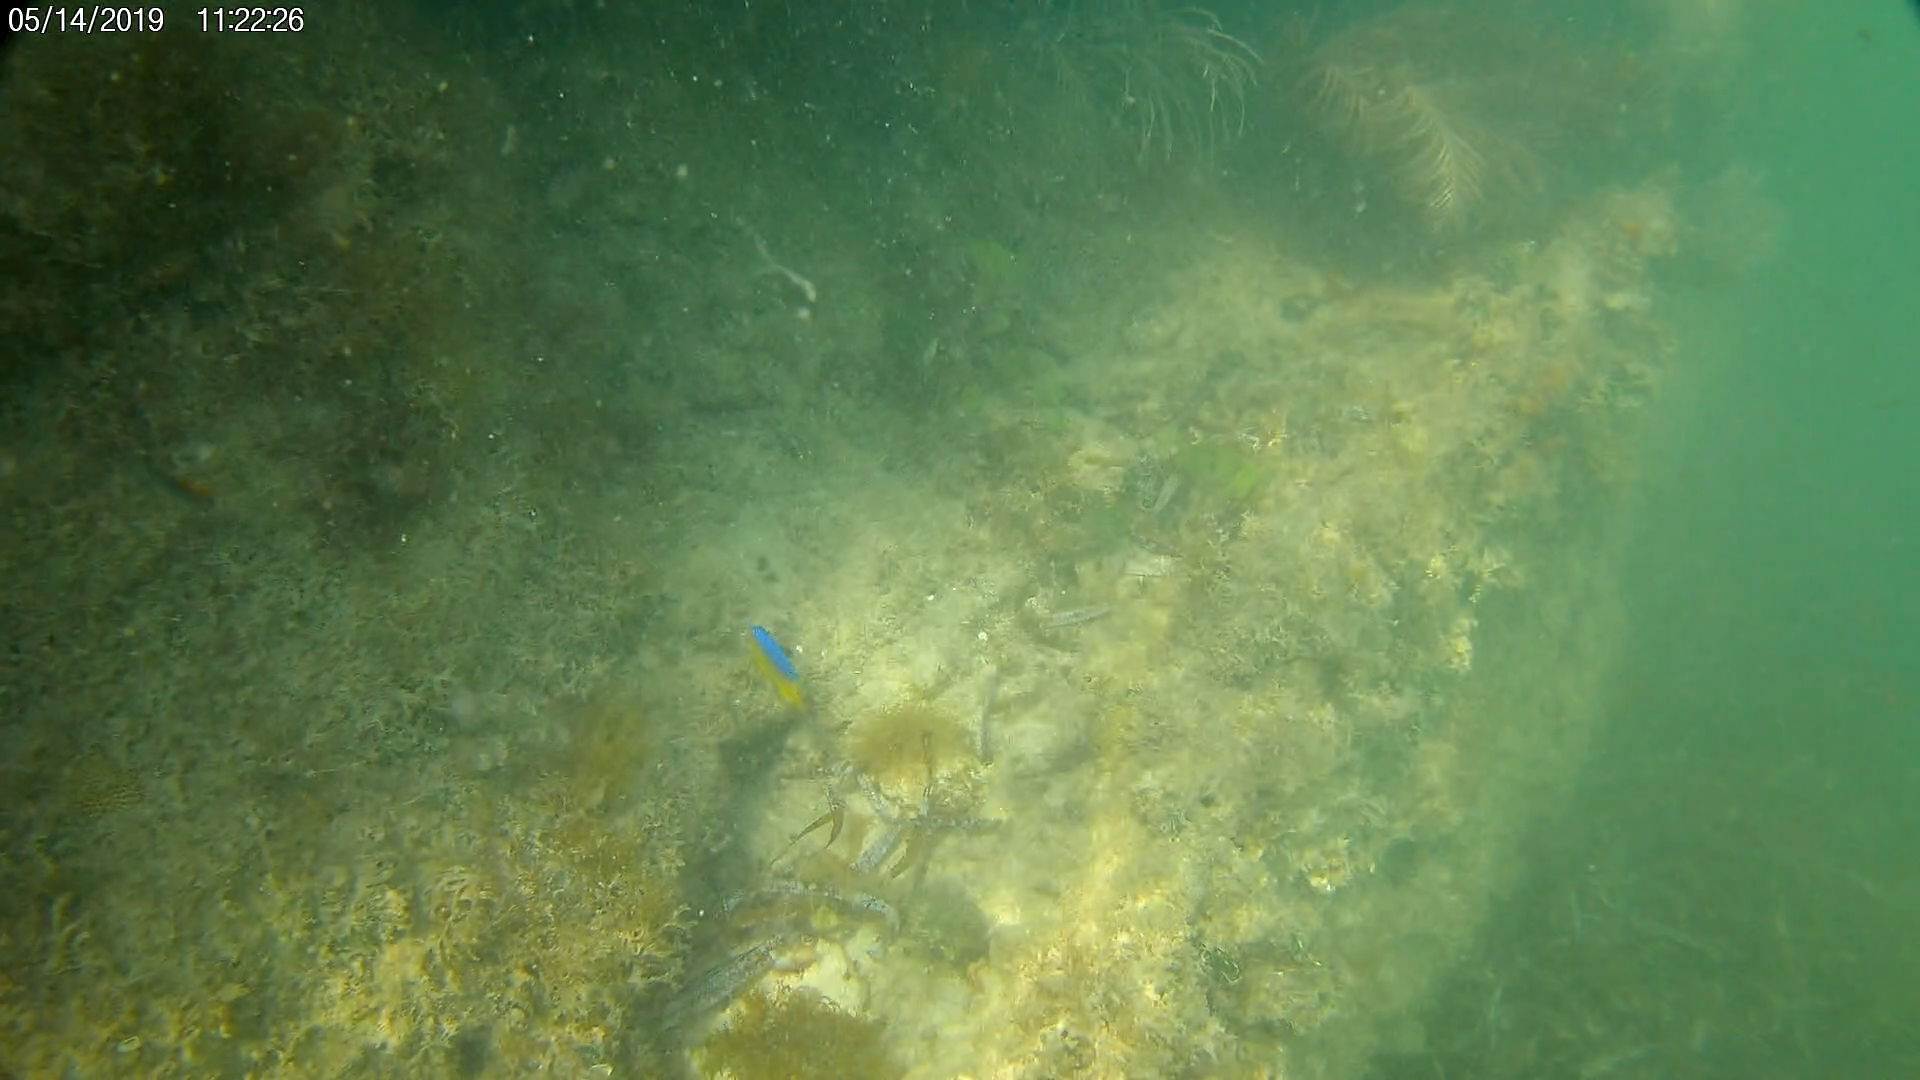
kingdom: Animalia
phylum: Chordata
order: Perciformes
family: Pomacentridae
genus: Stegastes
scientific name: Stegastes leucostictus
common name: Beaugregory
